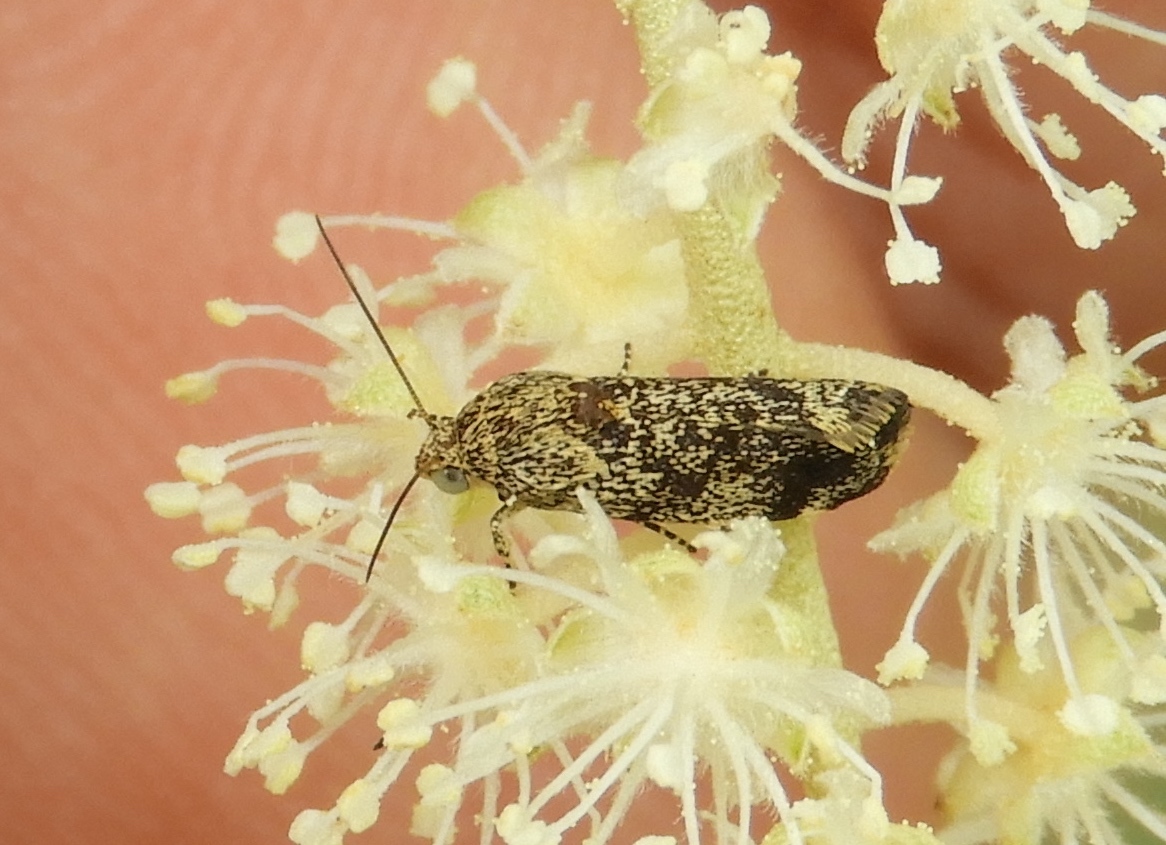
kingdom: Animalia
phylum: Arthropoda
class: Insecta
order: Lepidoptera
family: Noctuidae
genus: Acontia
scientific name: Acontia margana
